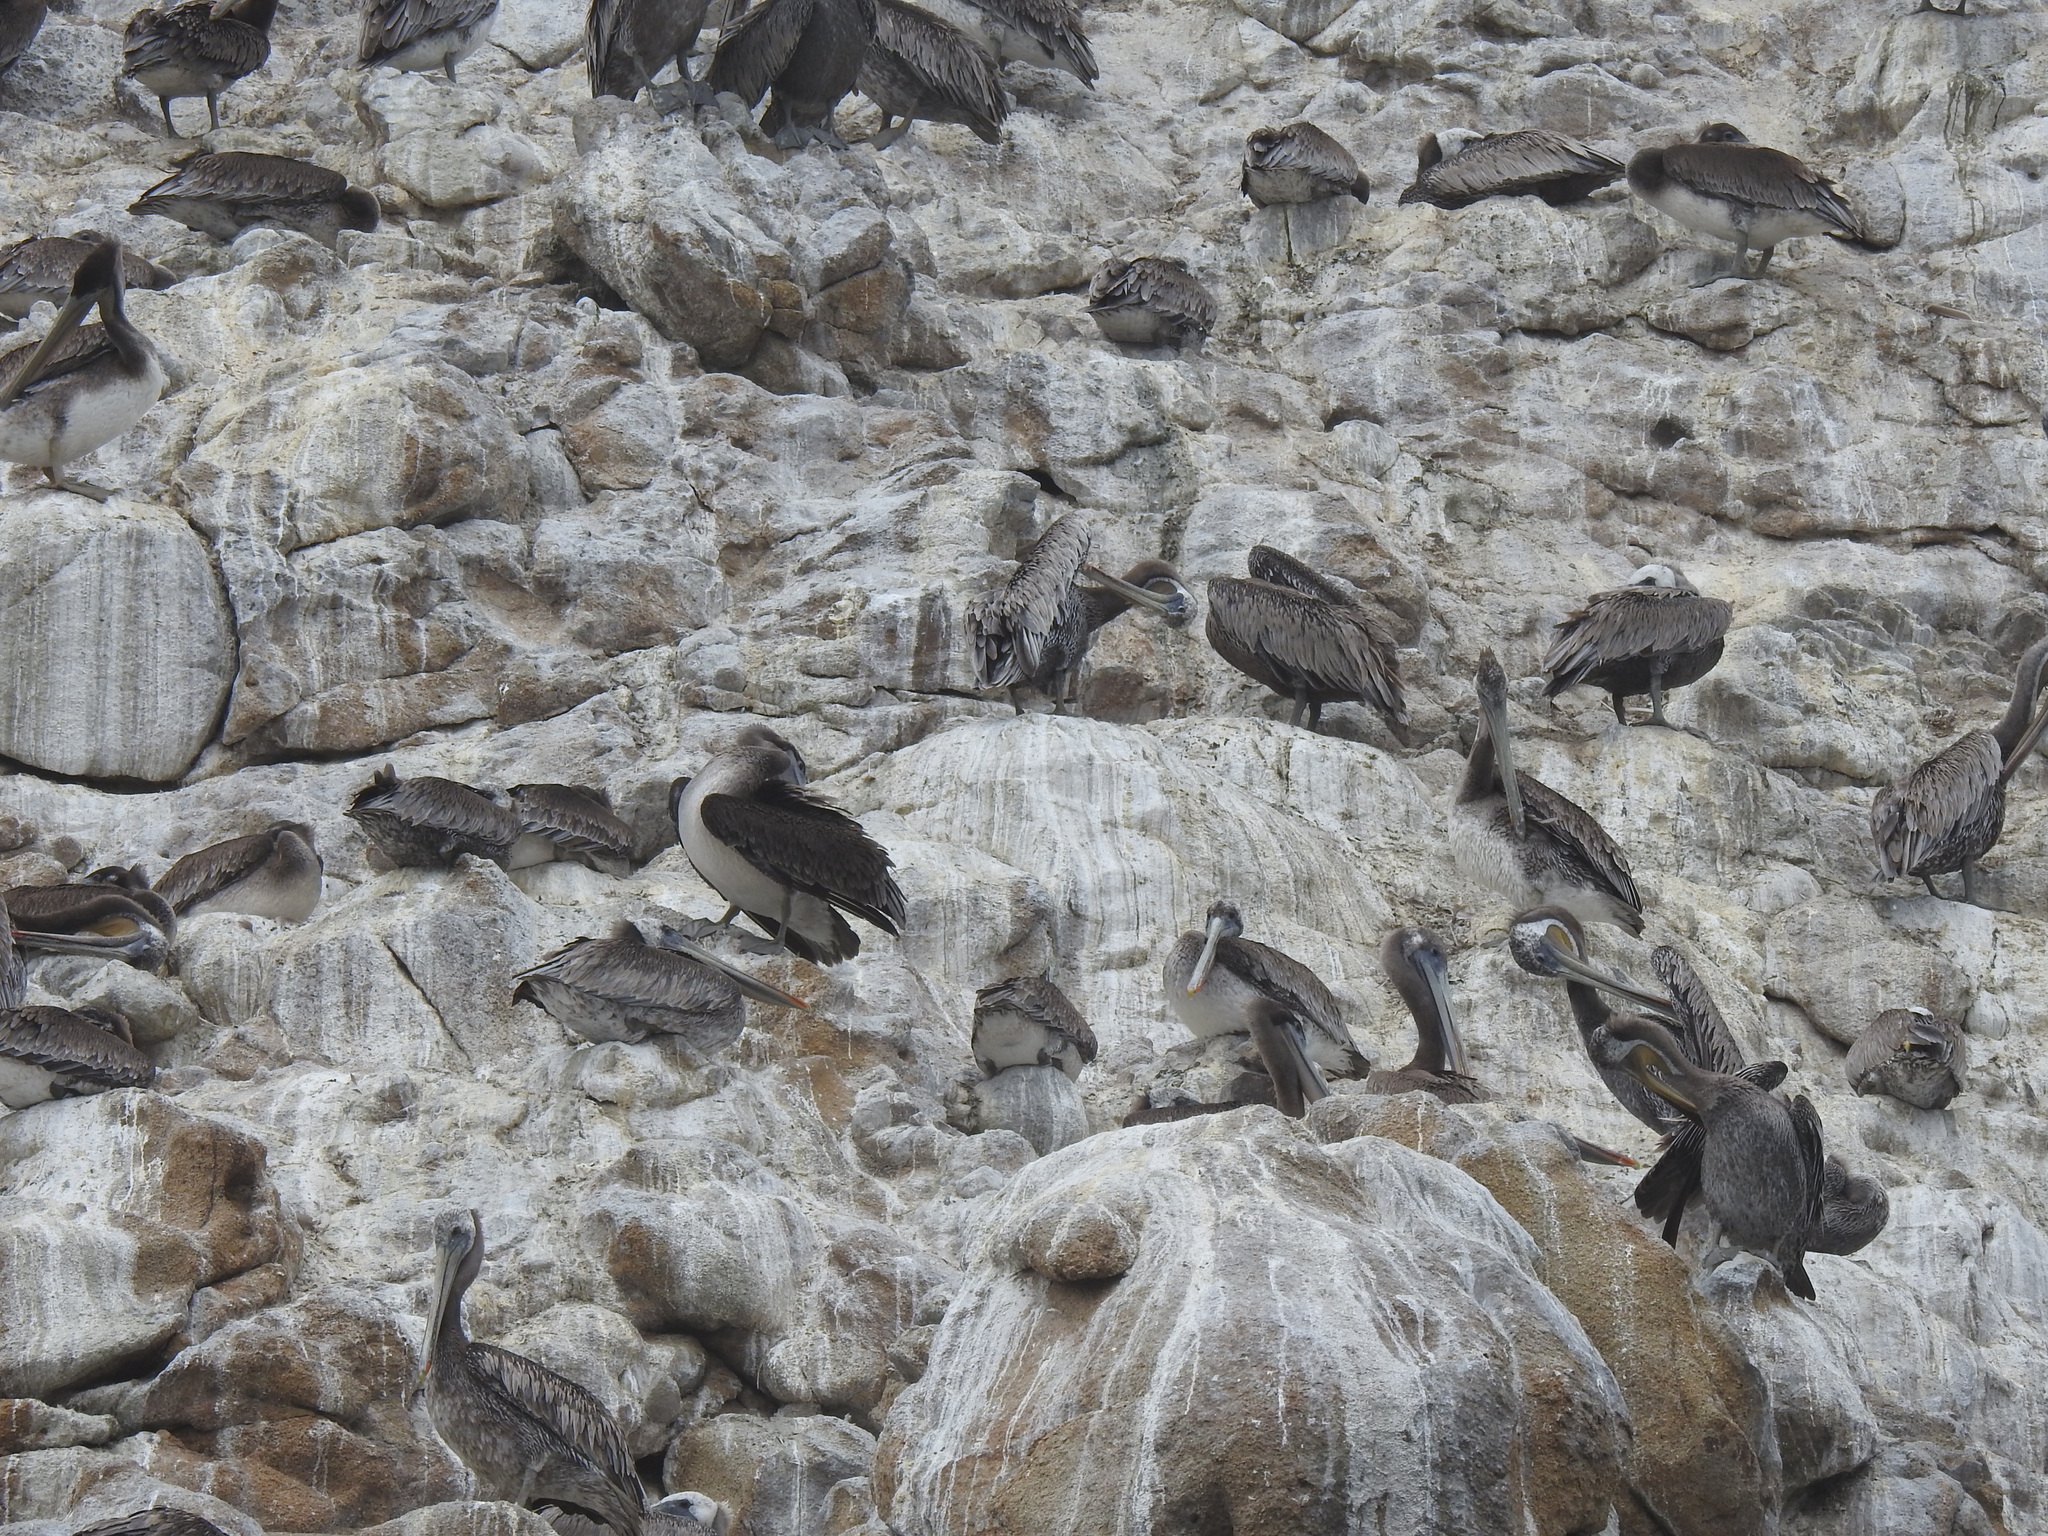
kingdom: Animalia
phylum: Chordata
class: Aves
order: Pelecaniformes
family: Pelecanidae
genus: Pelecanus
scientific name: Pelecanus occidentalis
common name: Brown pelican
